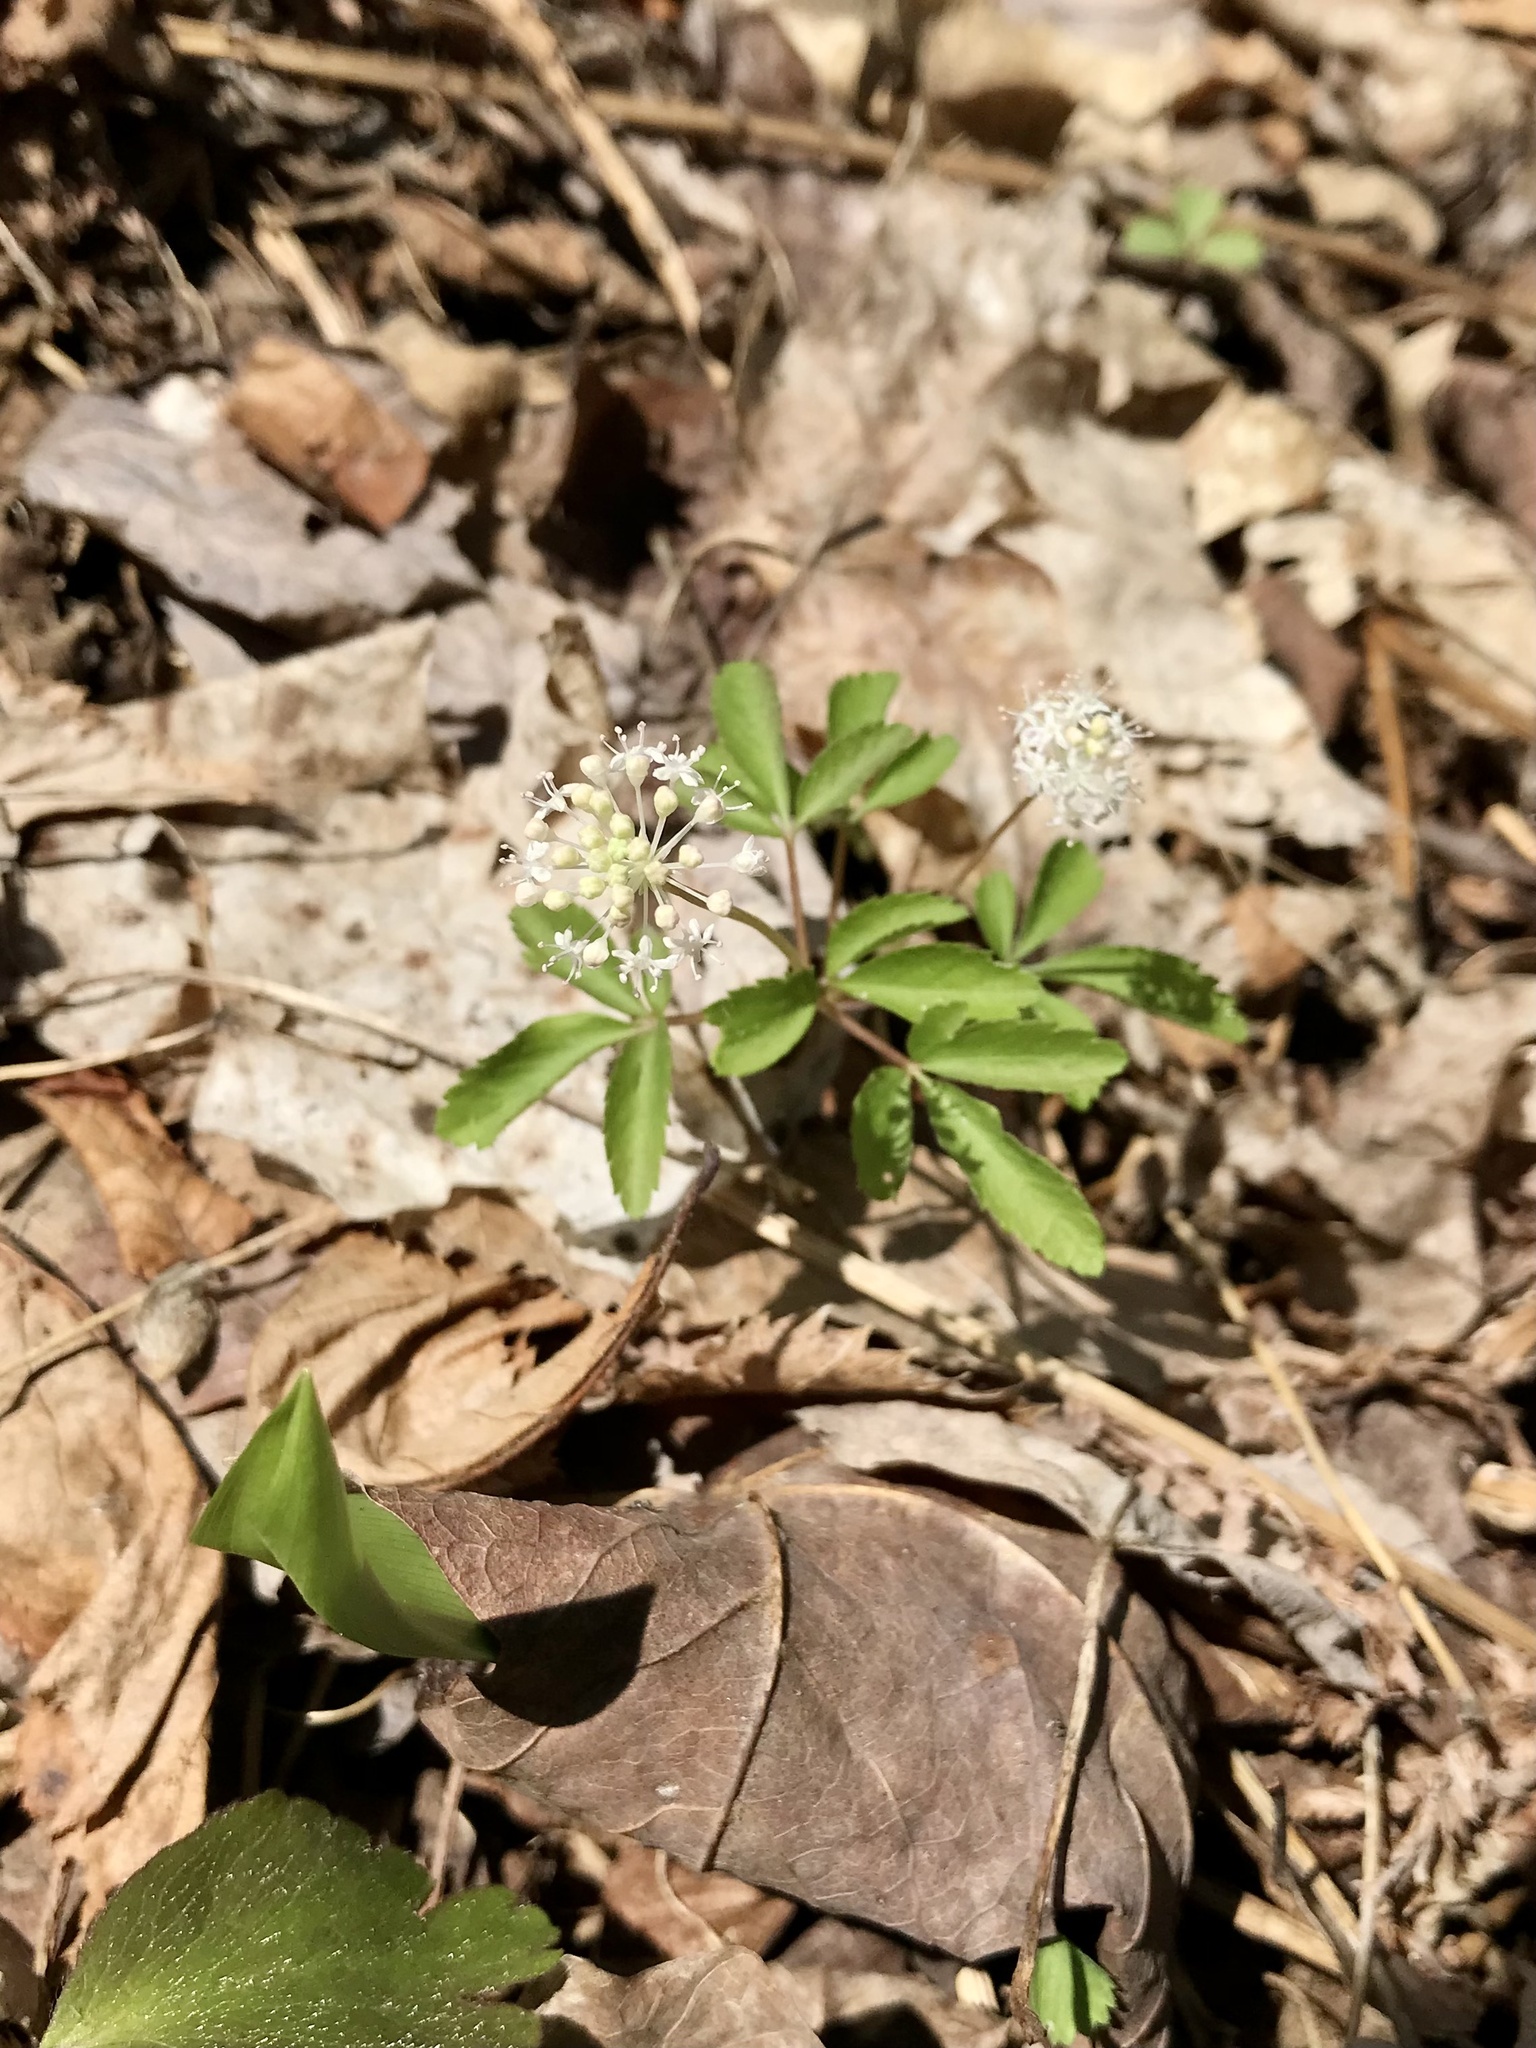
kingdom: Plantae
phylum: Tracheophyta
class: Magnoliopsida
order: Apiales
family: Araliaceae
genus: Panax
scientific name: Panax trifolius
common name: Dwarf ginseng
